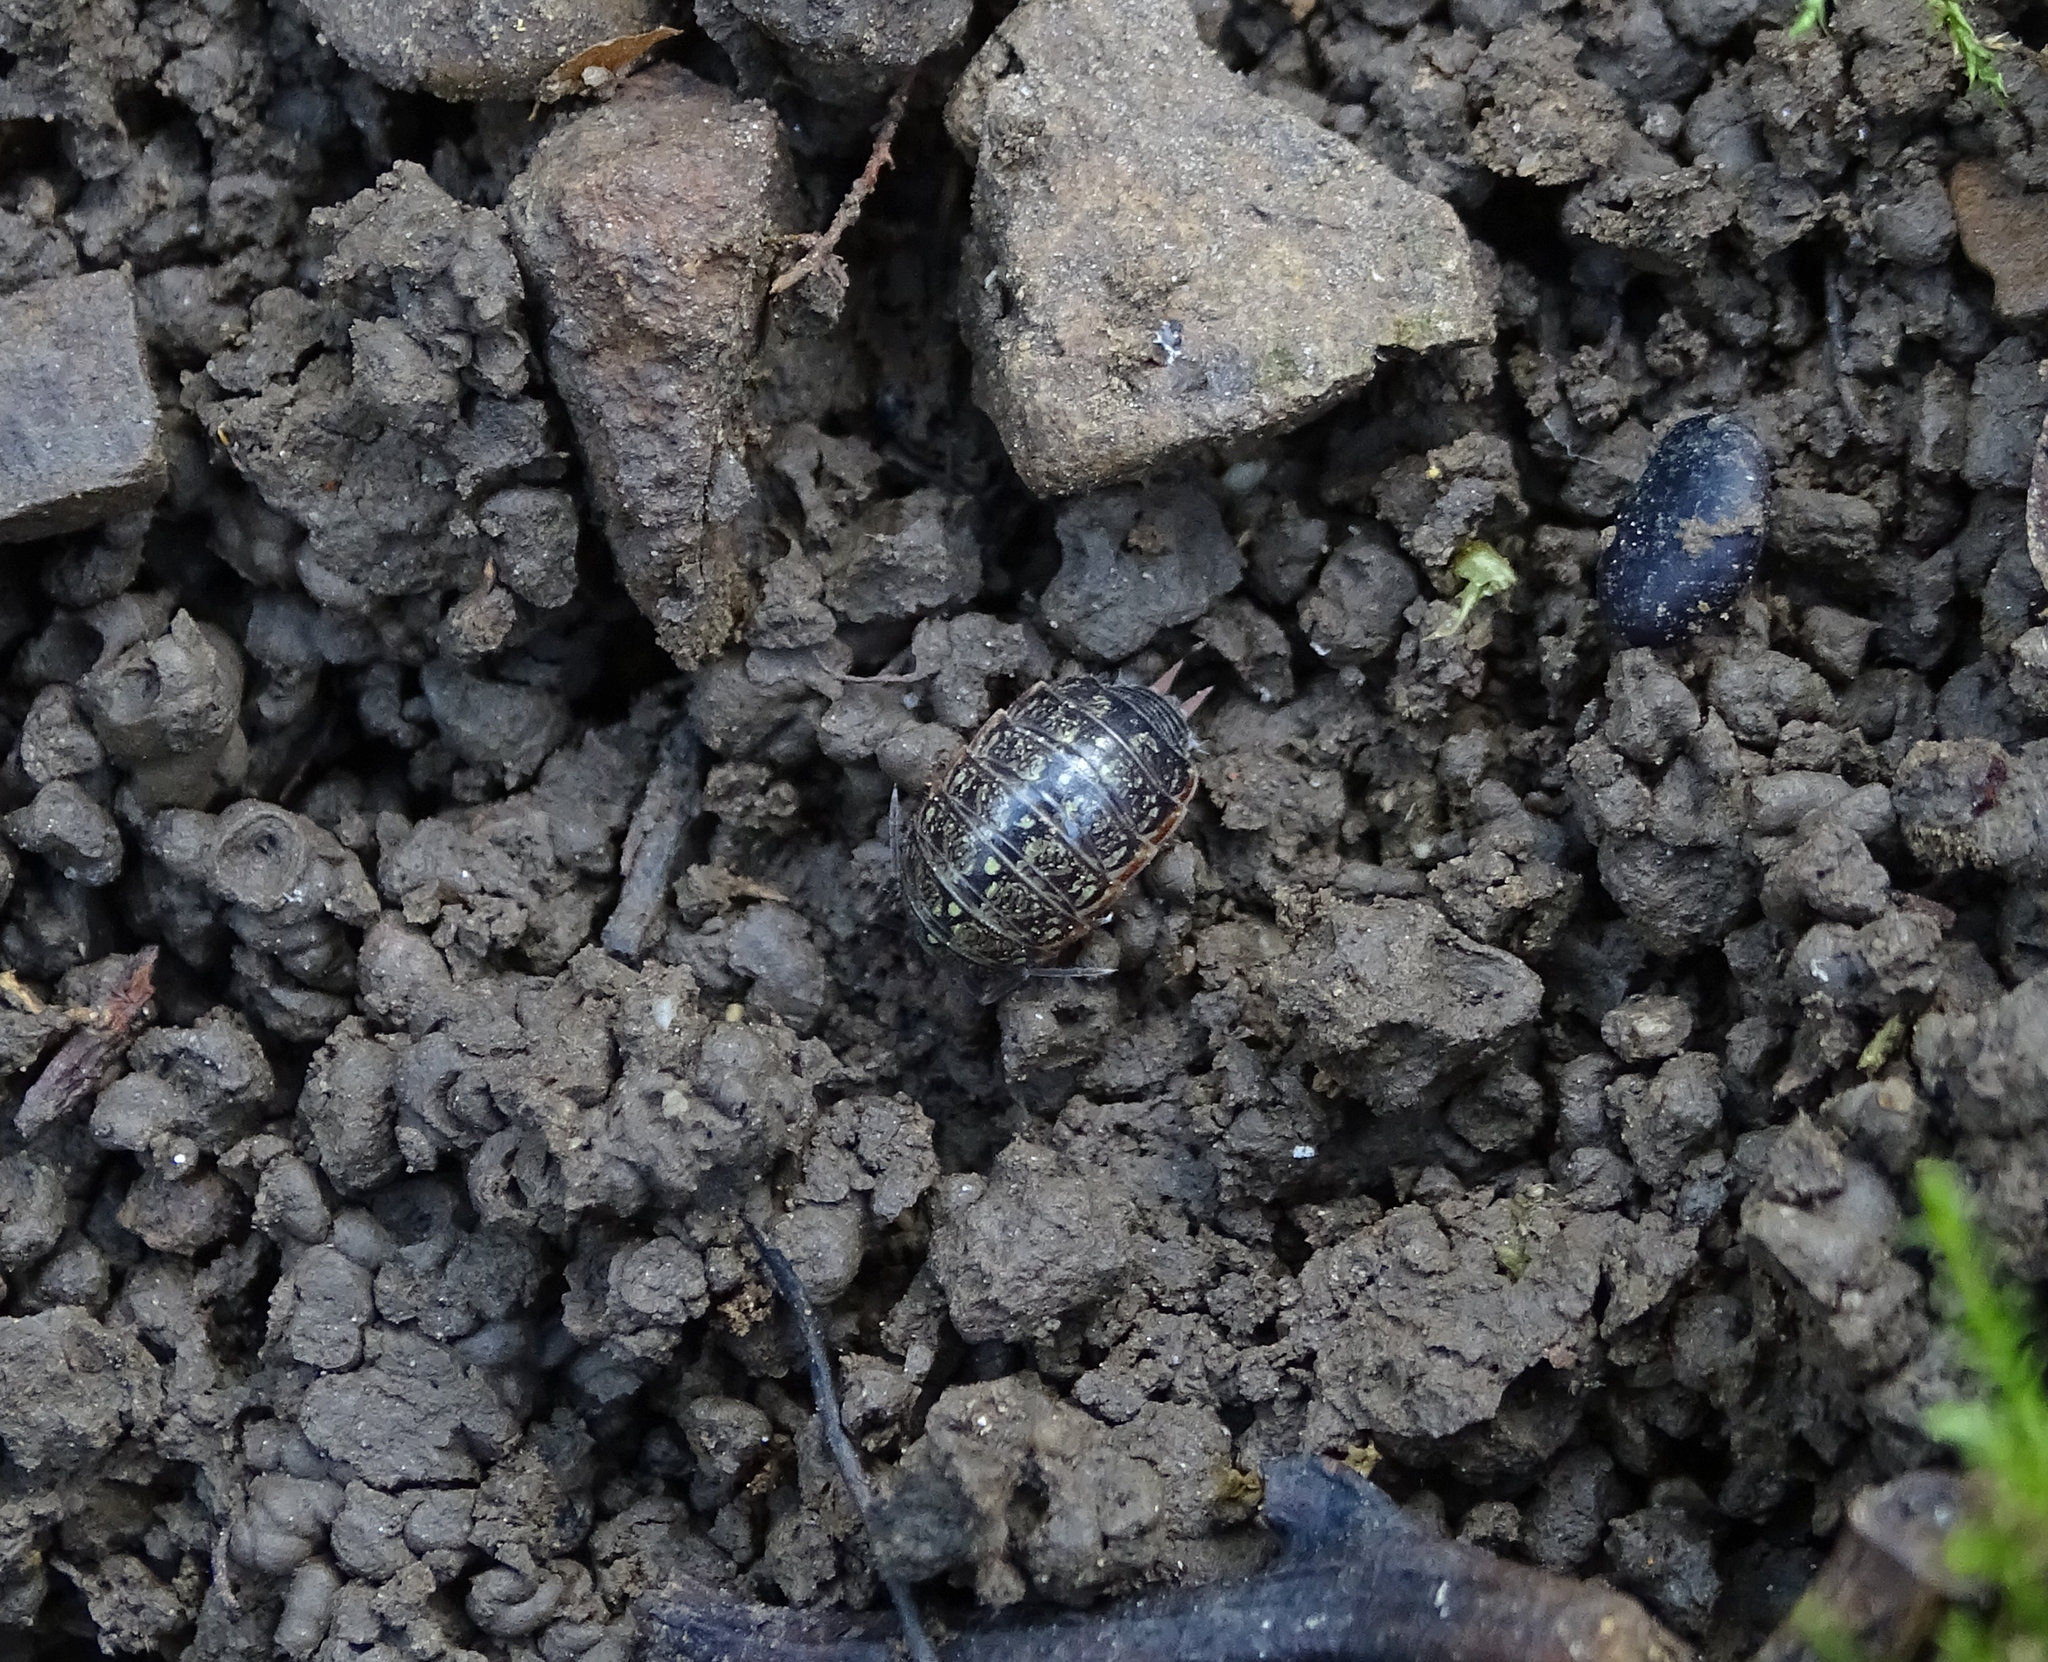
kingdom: Animalia
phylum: Arthropoda
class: Malacostraca
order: Isopoda
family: Philosciidae
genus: Philoscia
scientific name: Philoscia muscorum
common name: Common striped woodlouse
